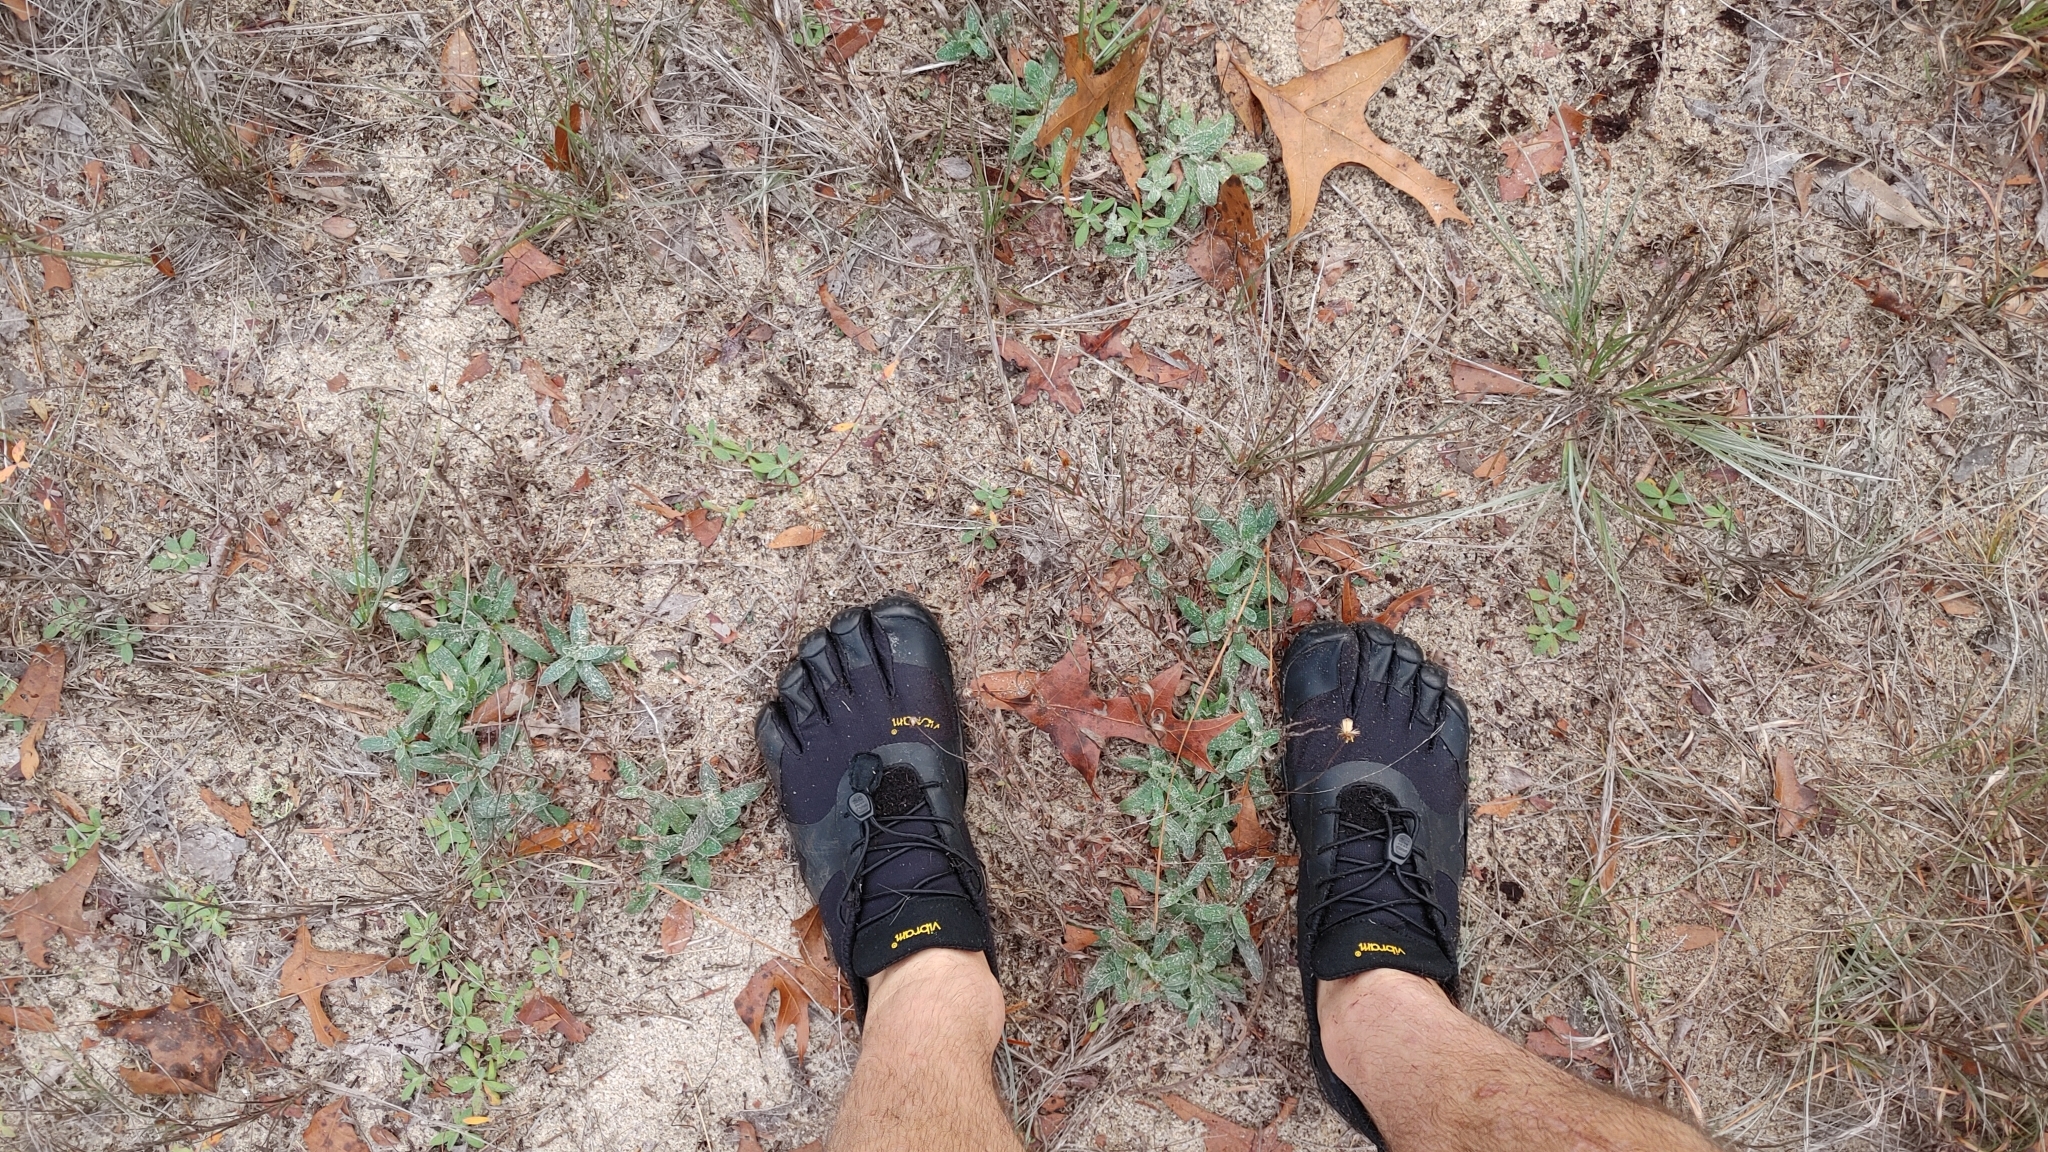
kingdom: Plantae
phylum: Tracheophyta
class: Magnoliopsida
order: Asterales
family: Asteraceae
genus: Pityopsis
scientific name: Pityopsis flexuosa
